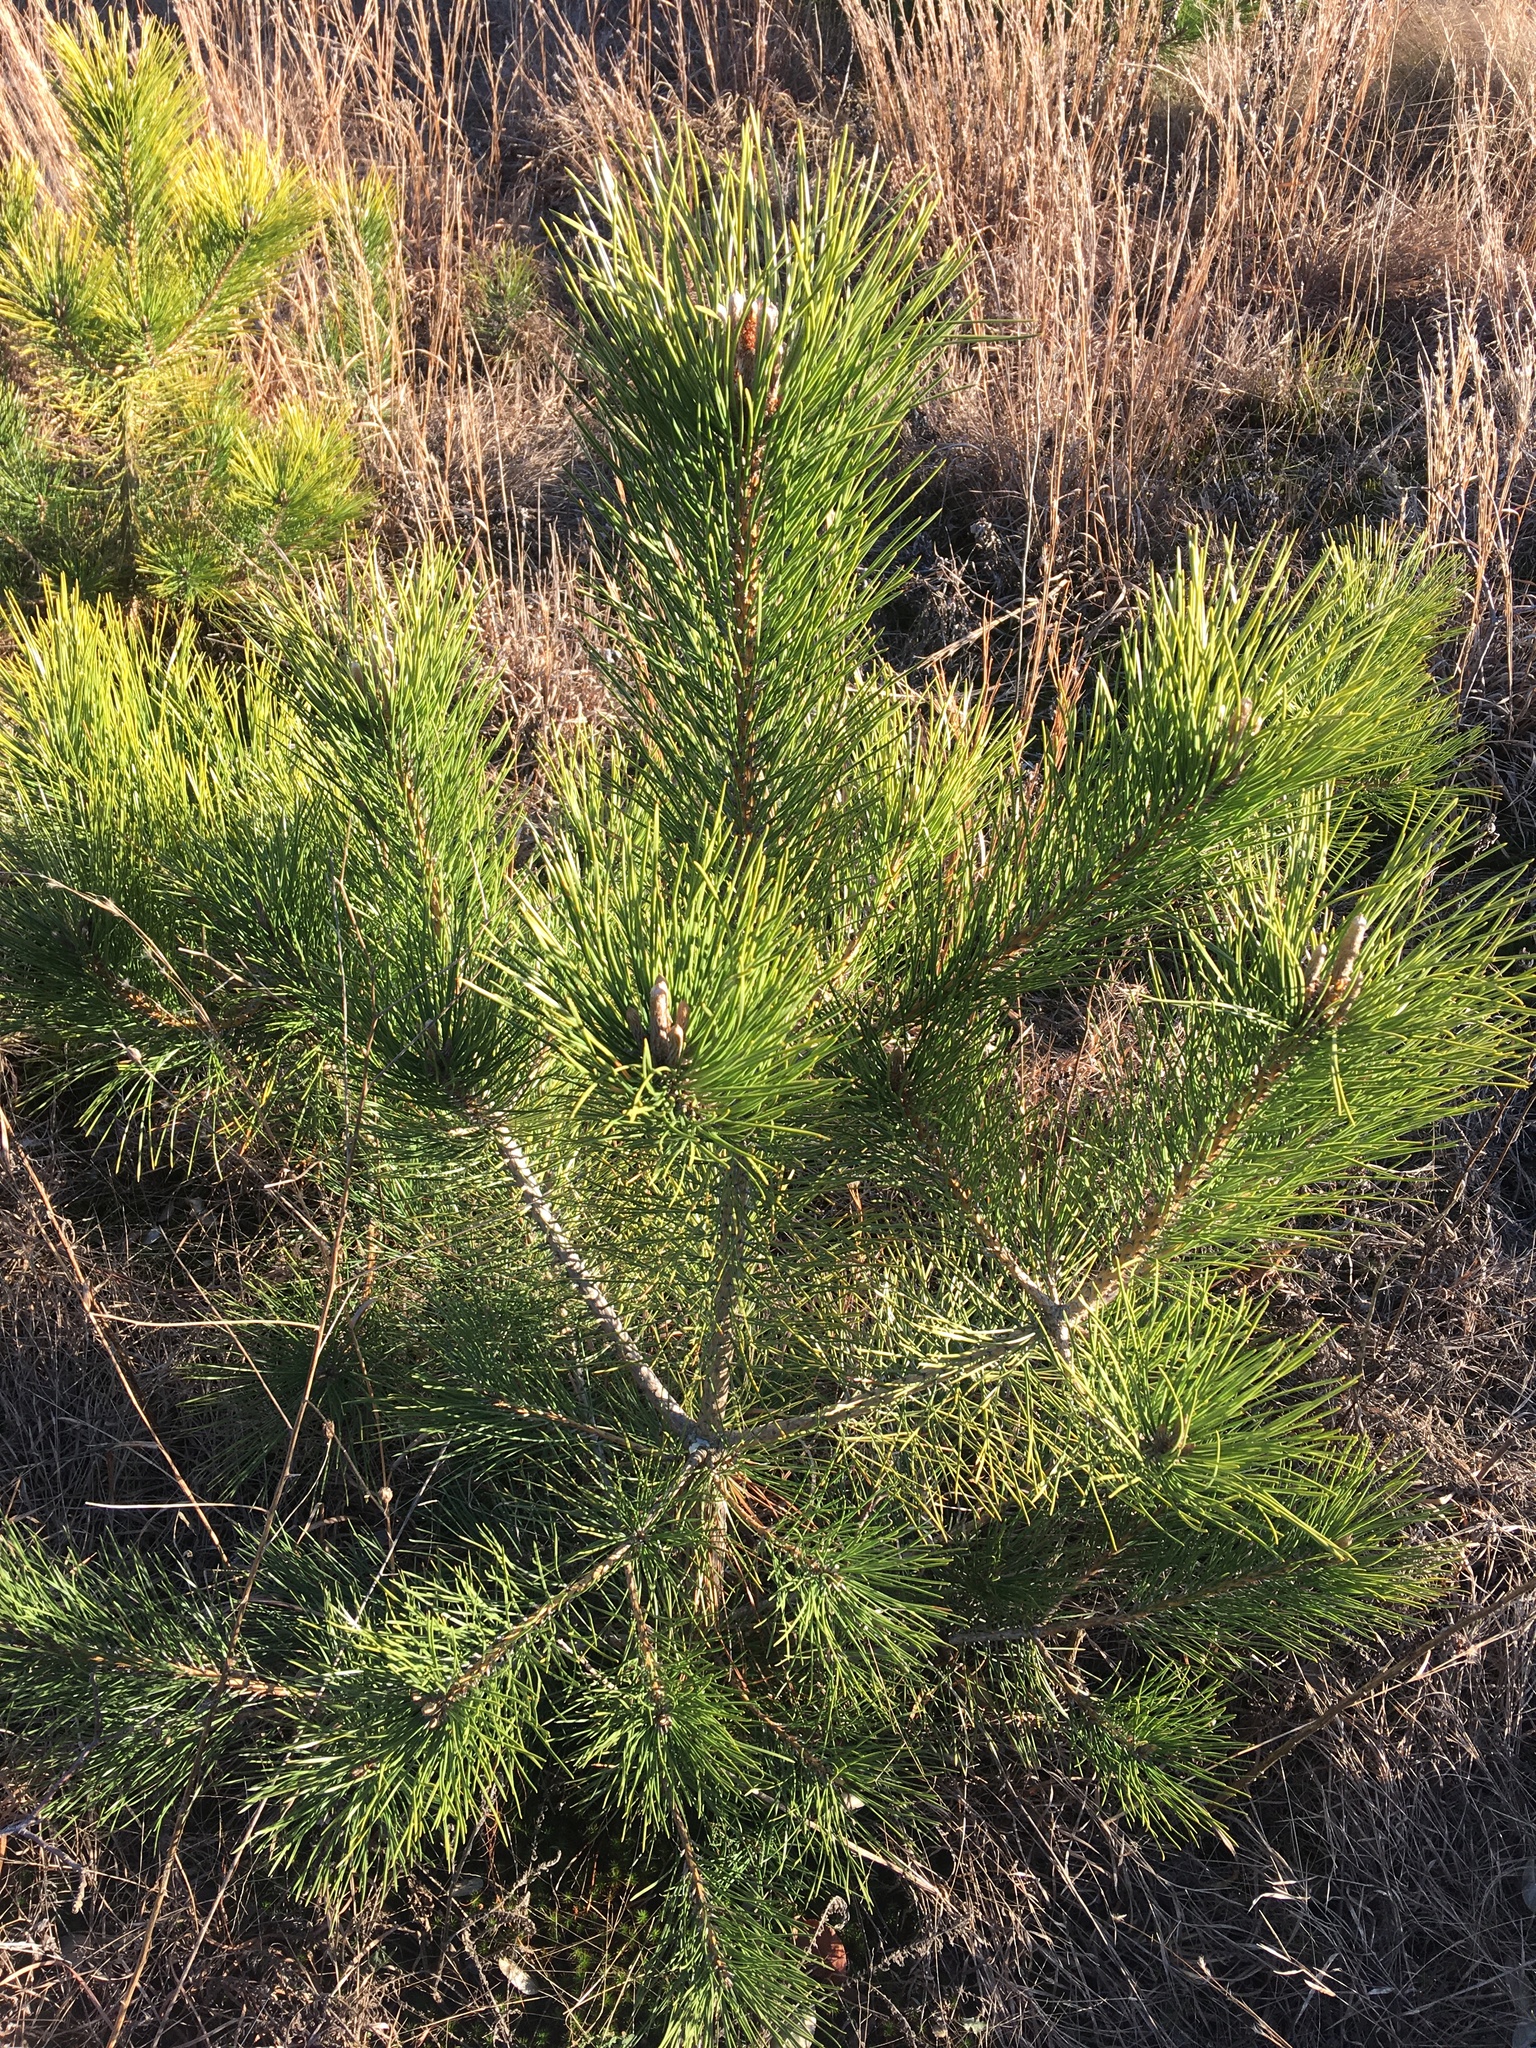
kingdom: Plantae
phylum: Tracheophyta
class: Pinopsida
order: Pinales
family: Pinaceae
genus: Pinus
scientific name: Pinus resinosa
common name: Norway pine
